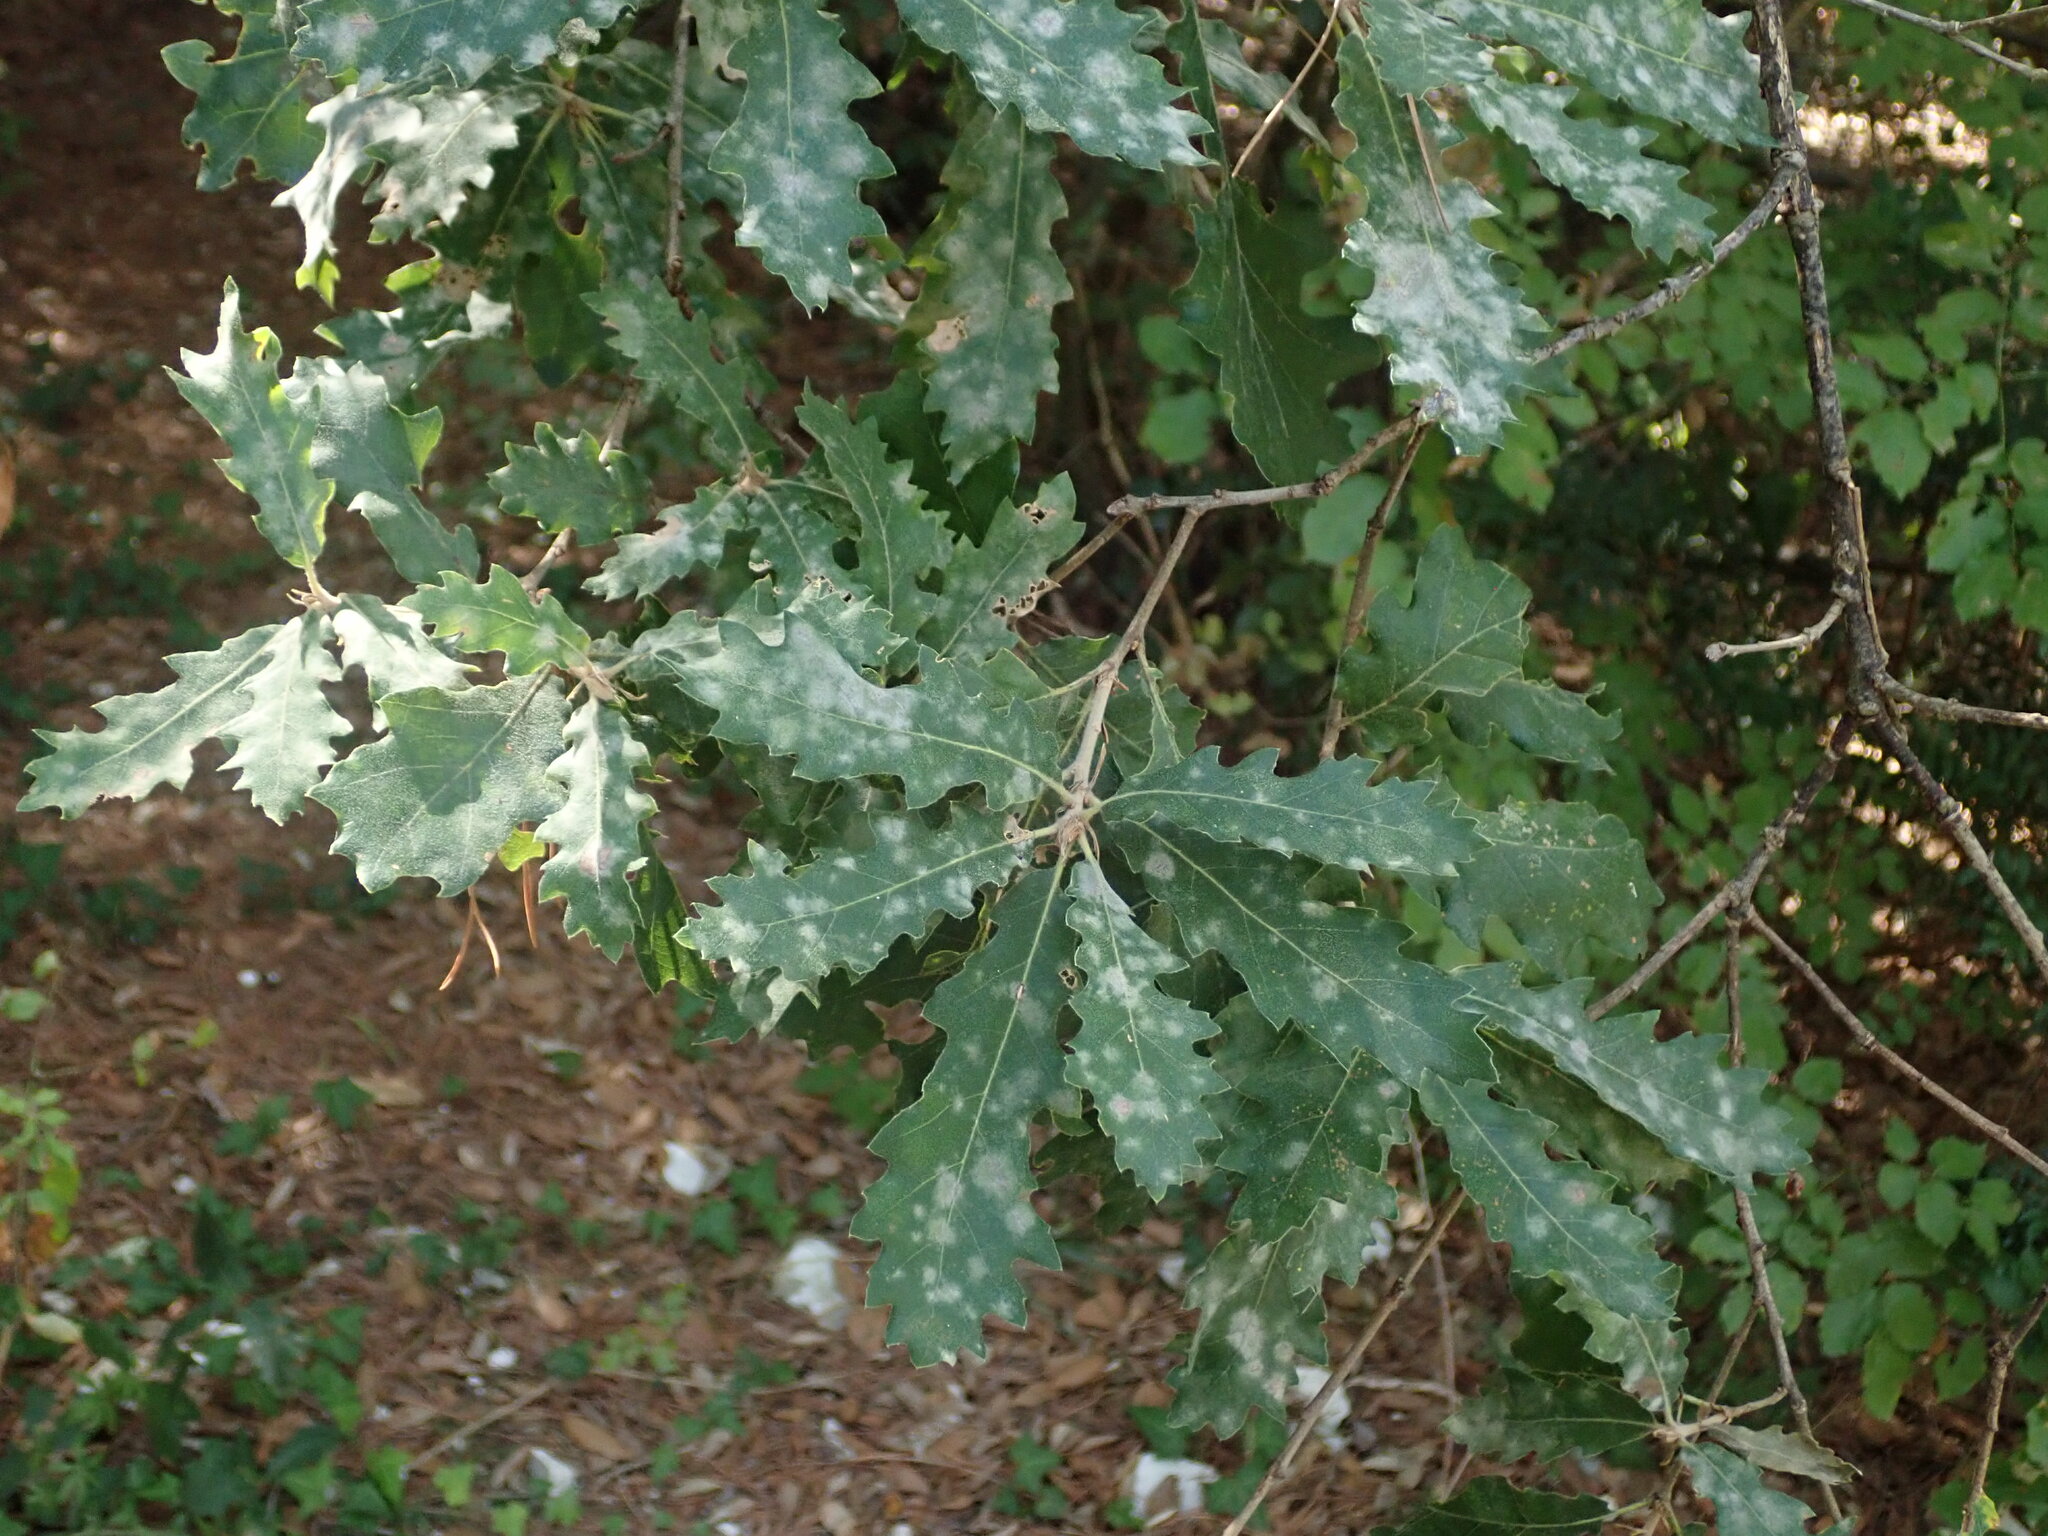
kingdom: Plantae
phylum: Tracheophyta
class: Magnoliopsida
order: Fagales
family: Fagaceae
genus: Quercus
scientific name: Quercus pubescens
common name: Downy oak
